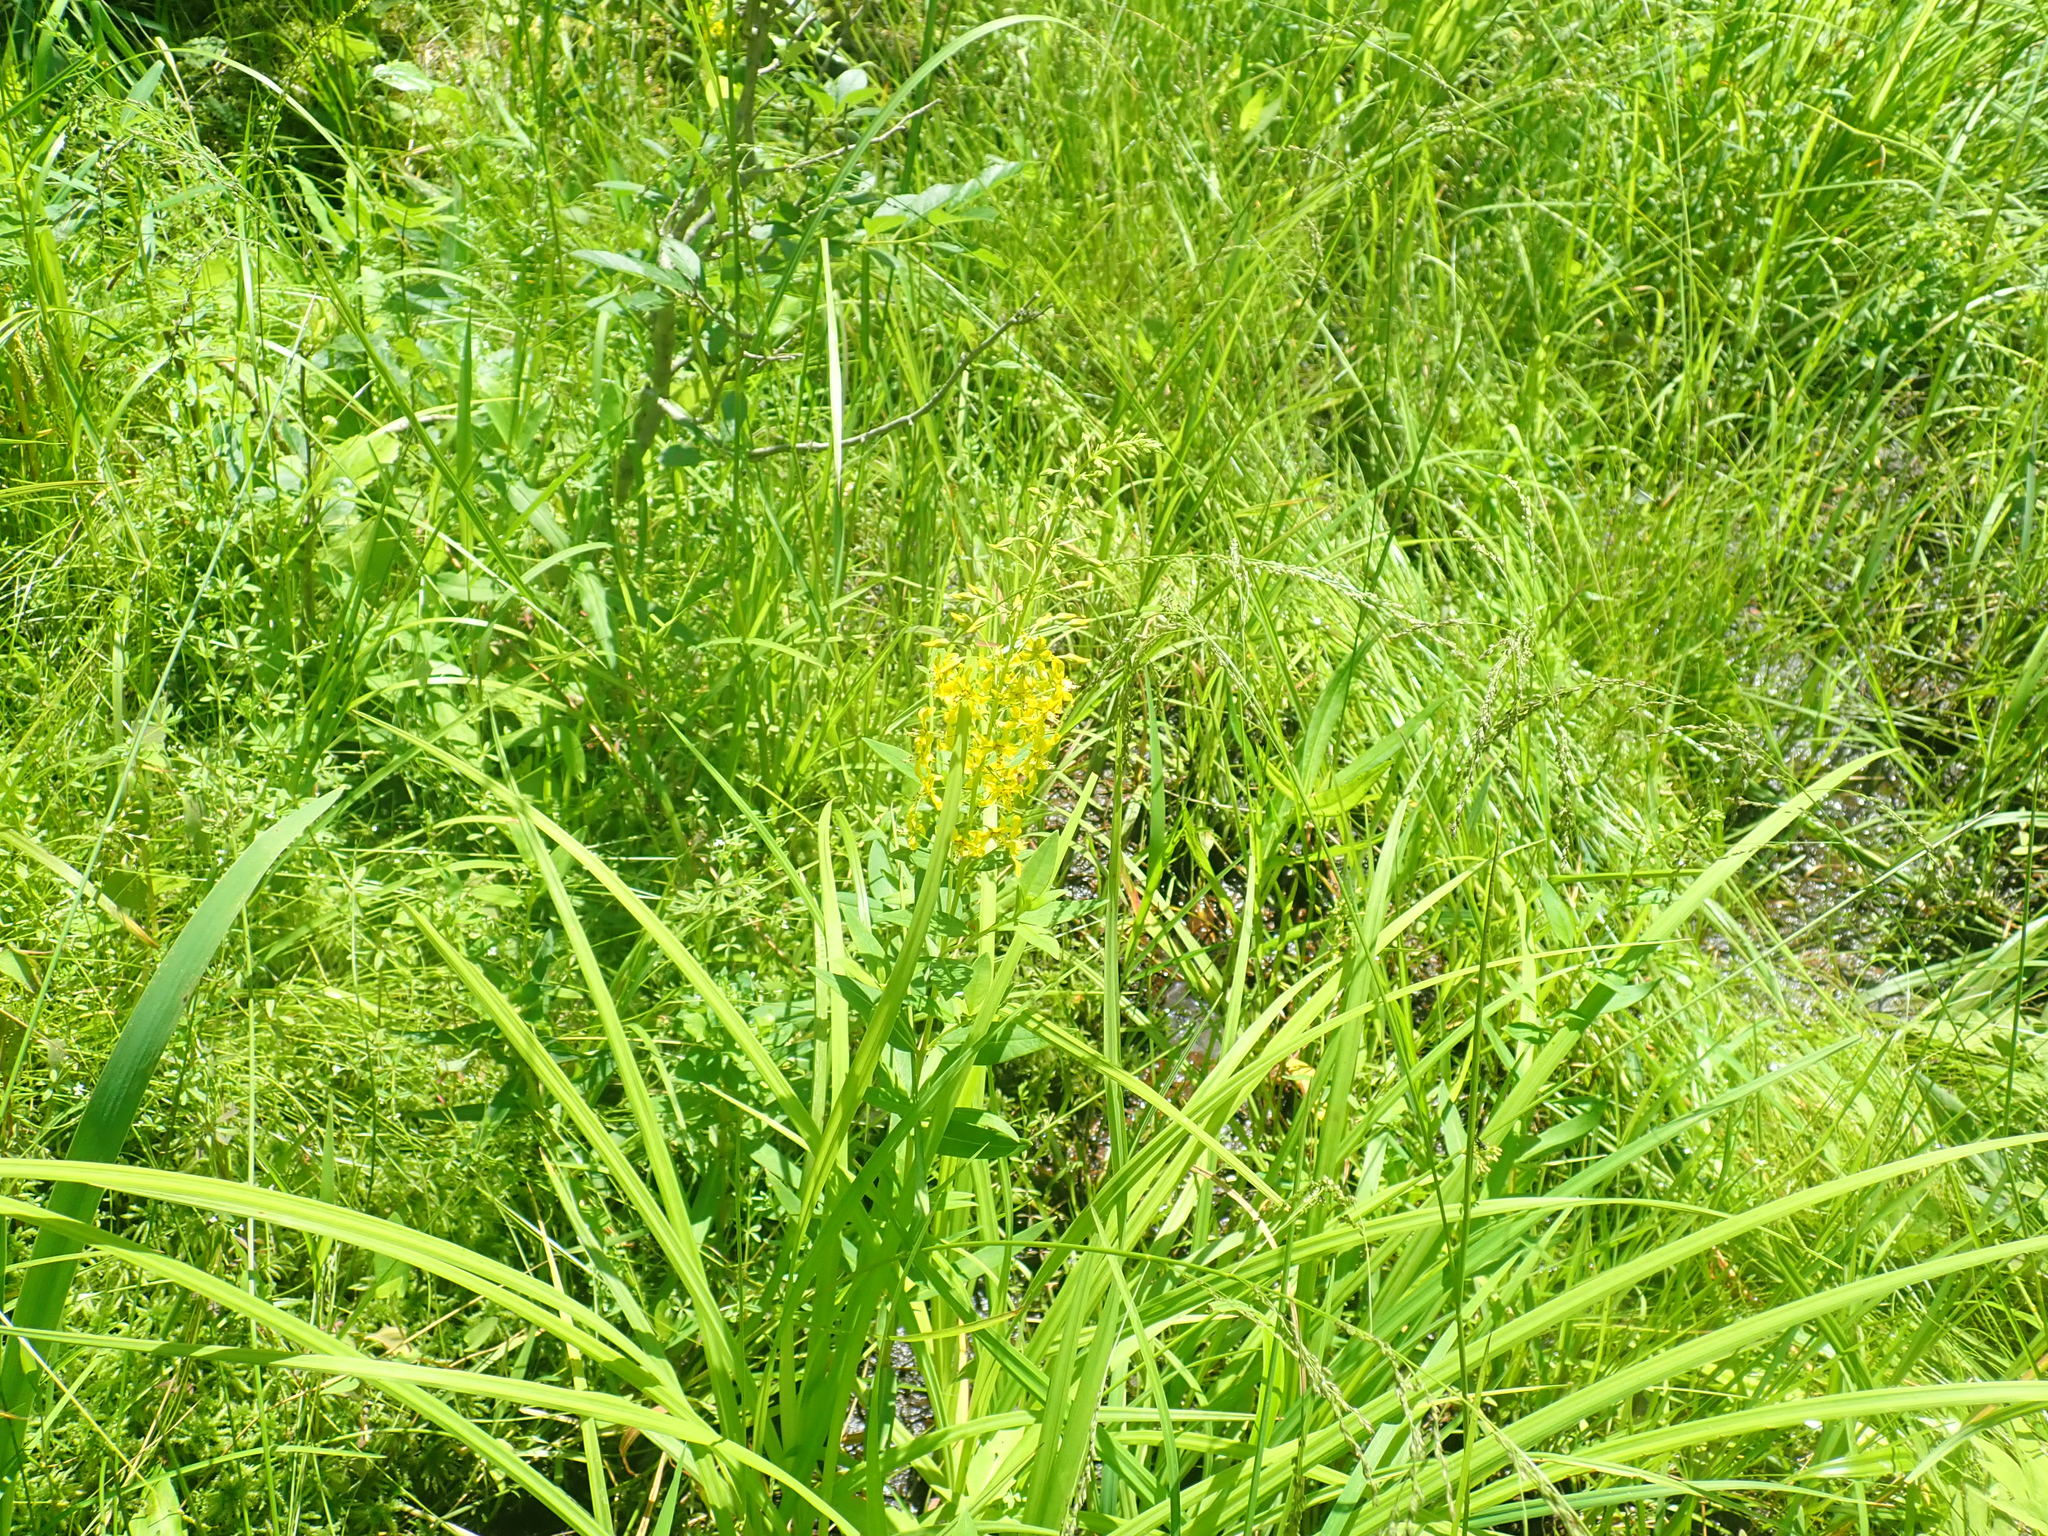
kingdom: Plantae
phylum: Tracheophyta
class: Magnoliopsida
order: Ericales
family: Primulaceae
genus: Lysimachia
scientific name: Lysimachia terrestris
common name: Lake loosestrife
